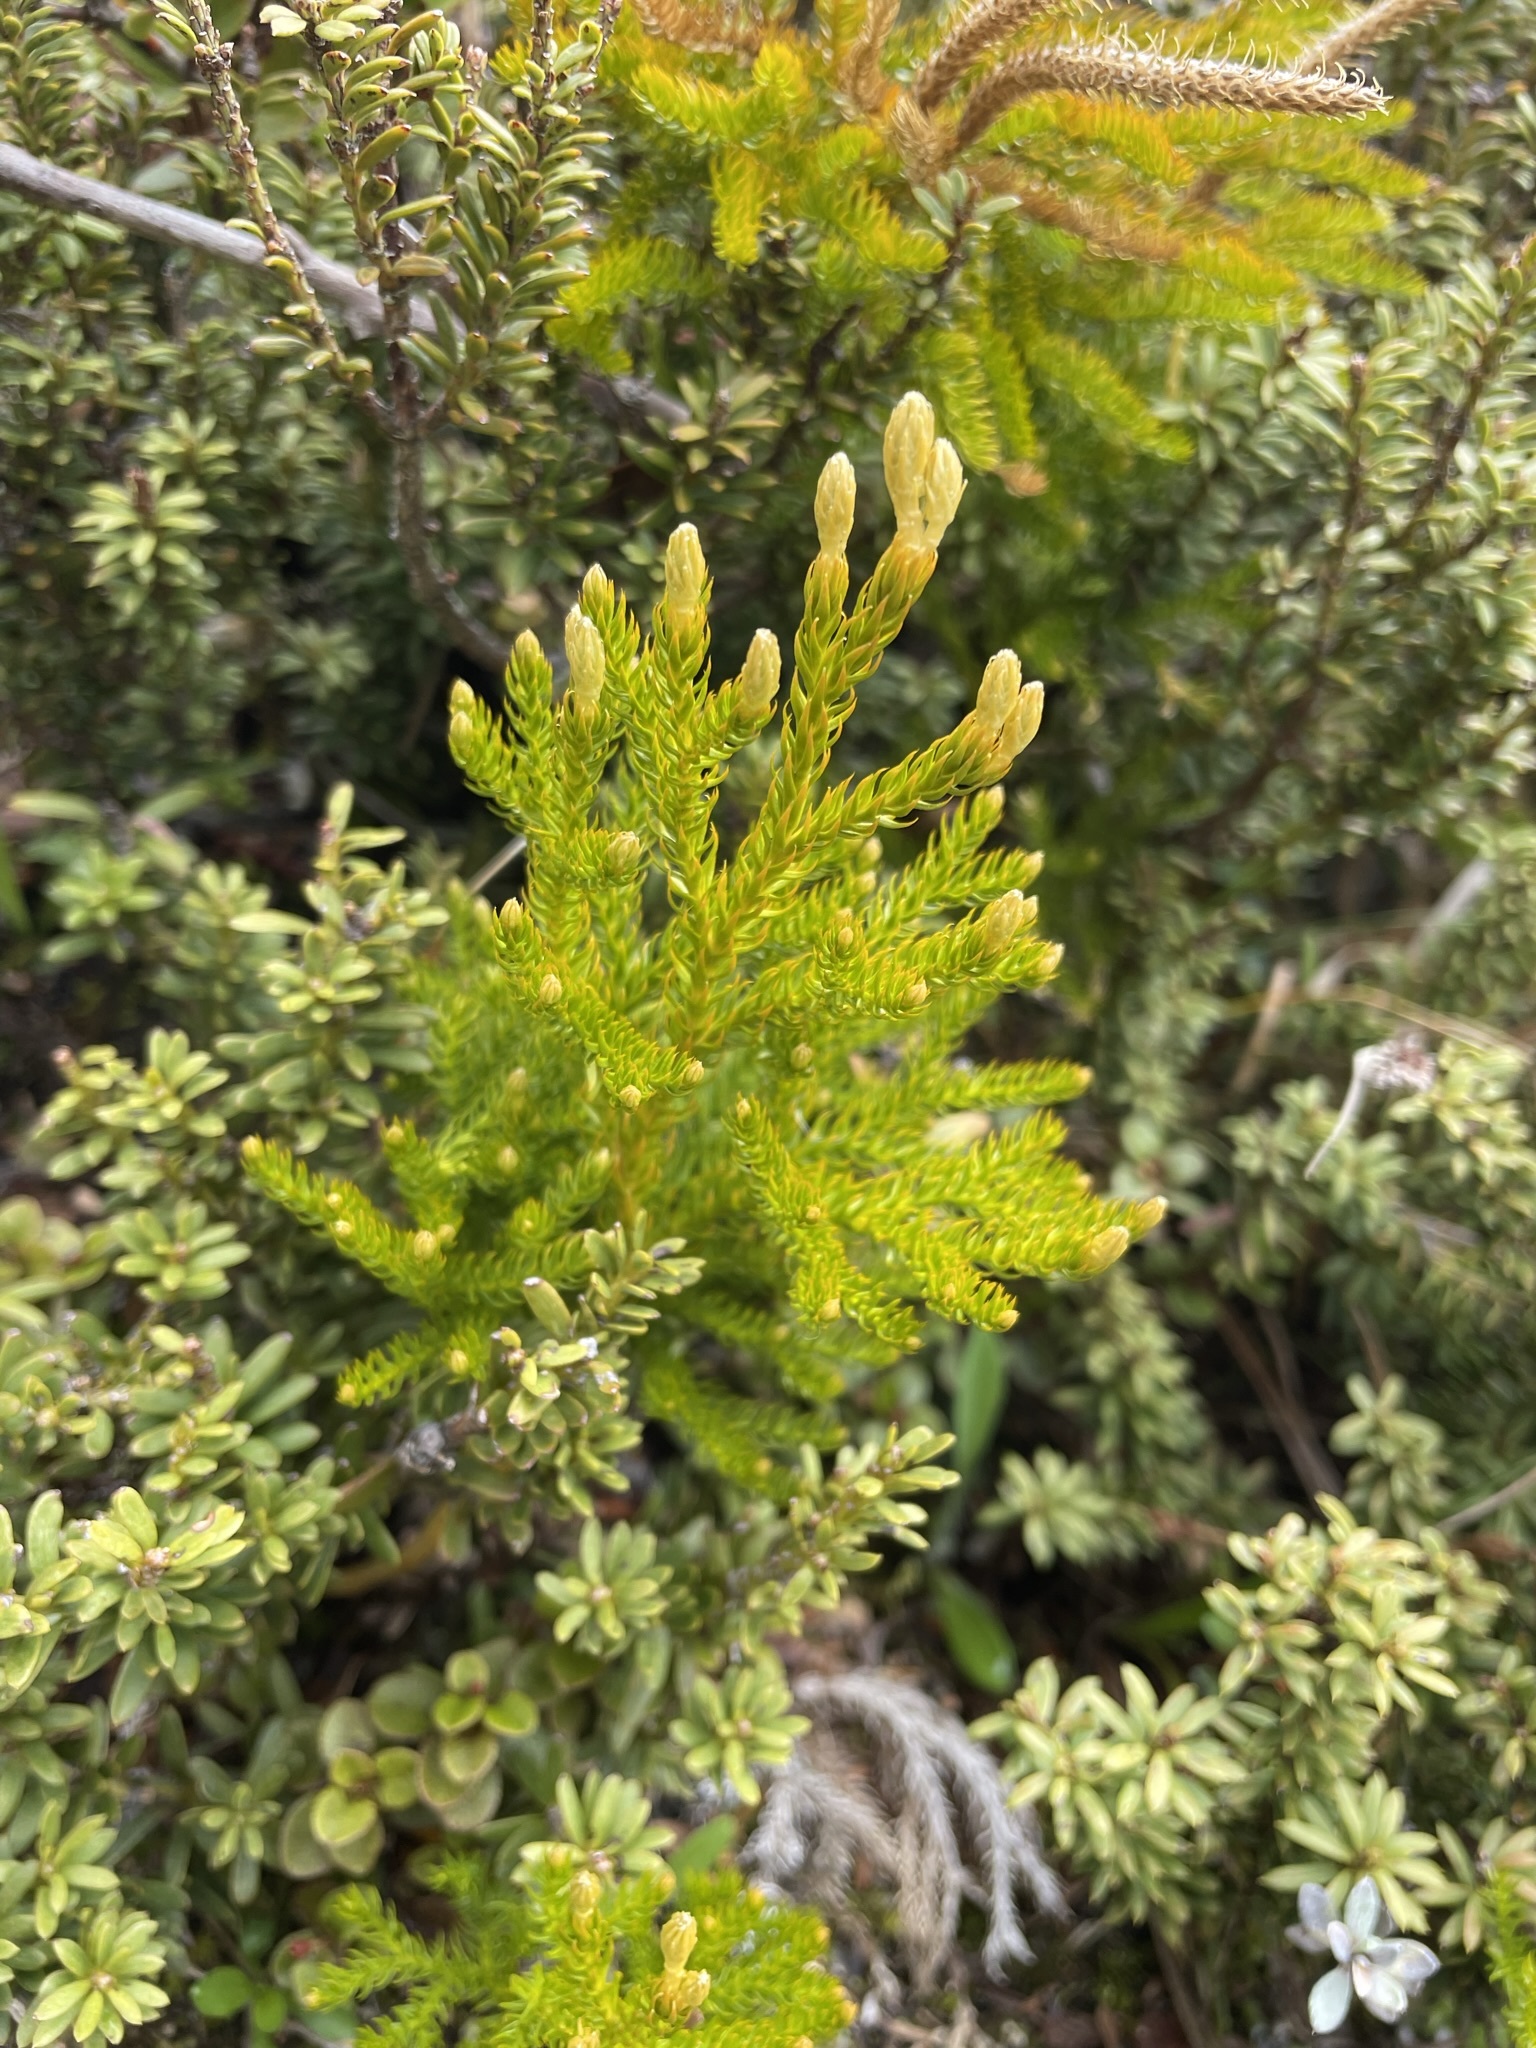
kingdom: Plantae
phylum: Tracheophyta
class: Lycopodiopsida
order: Lycopodiales
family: Lycopodiaceae
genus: Austrolycopodium
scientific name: Austrolycopodium fastigiatum
